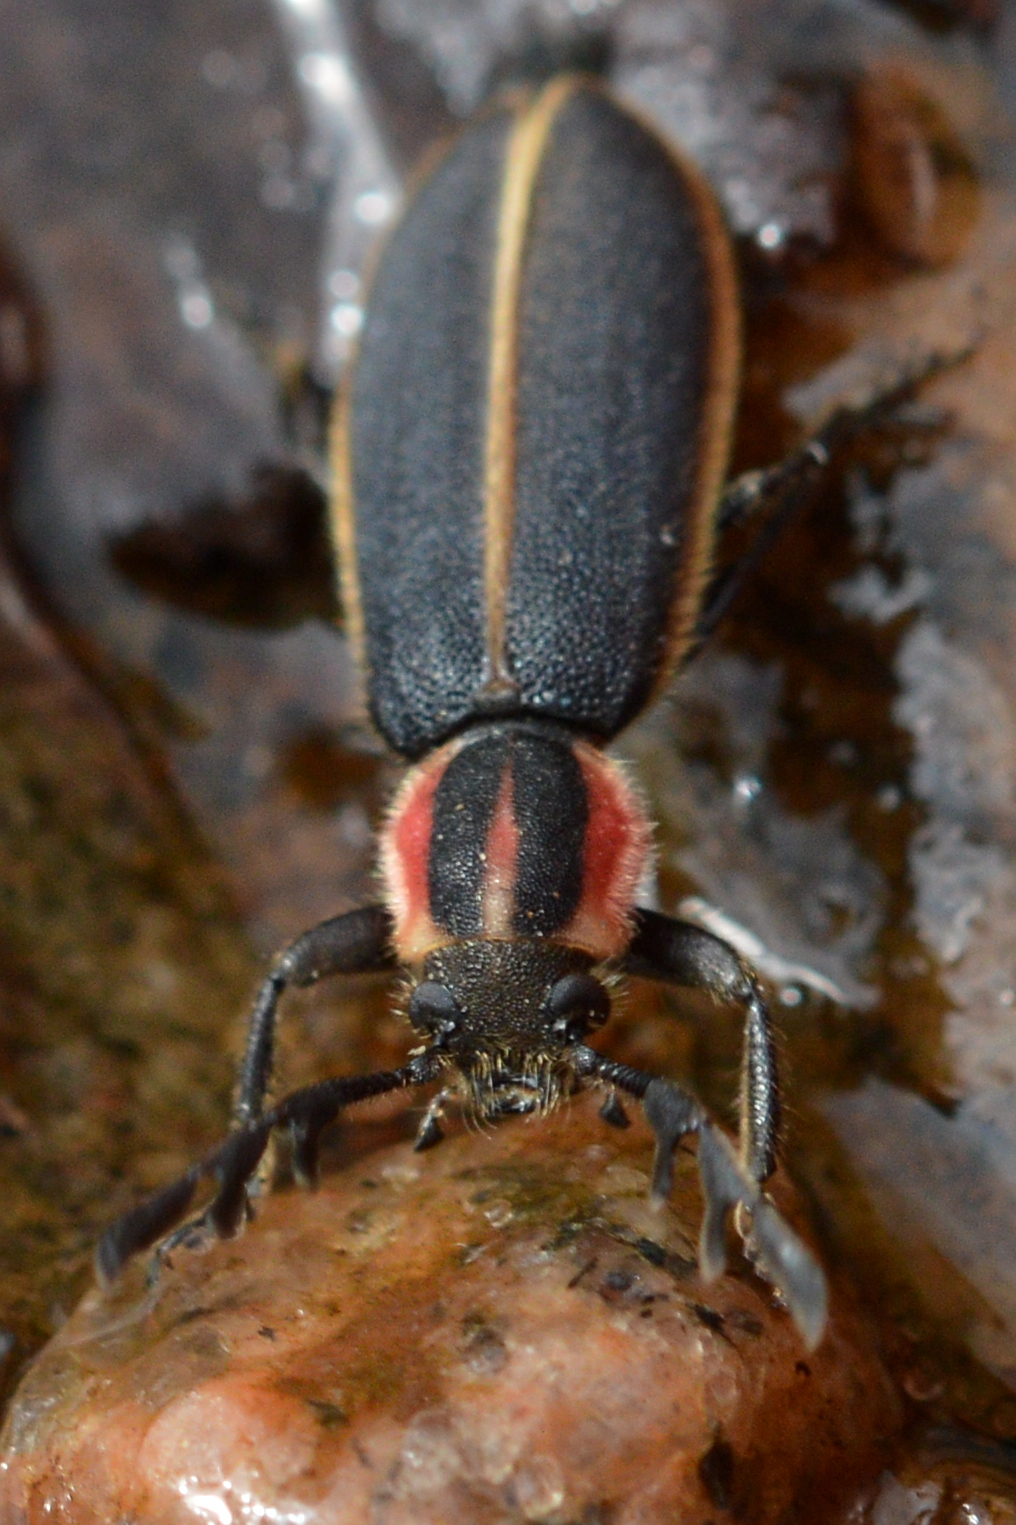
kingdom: Animalia
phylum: Arthropoda
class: Insecta
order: Coleoptera
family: Cleridae
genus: Chariessa
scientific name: Chariessa pilosa
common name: Pilose checkered beetle
